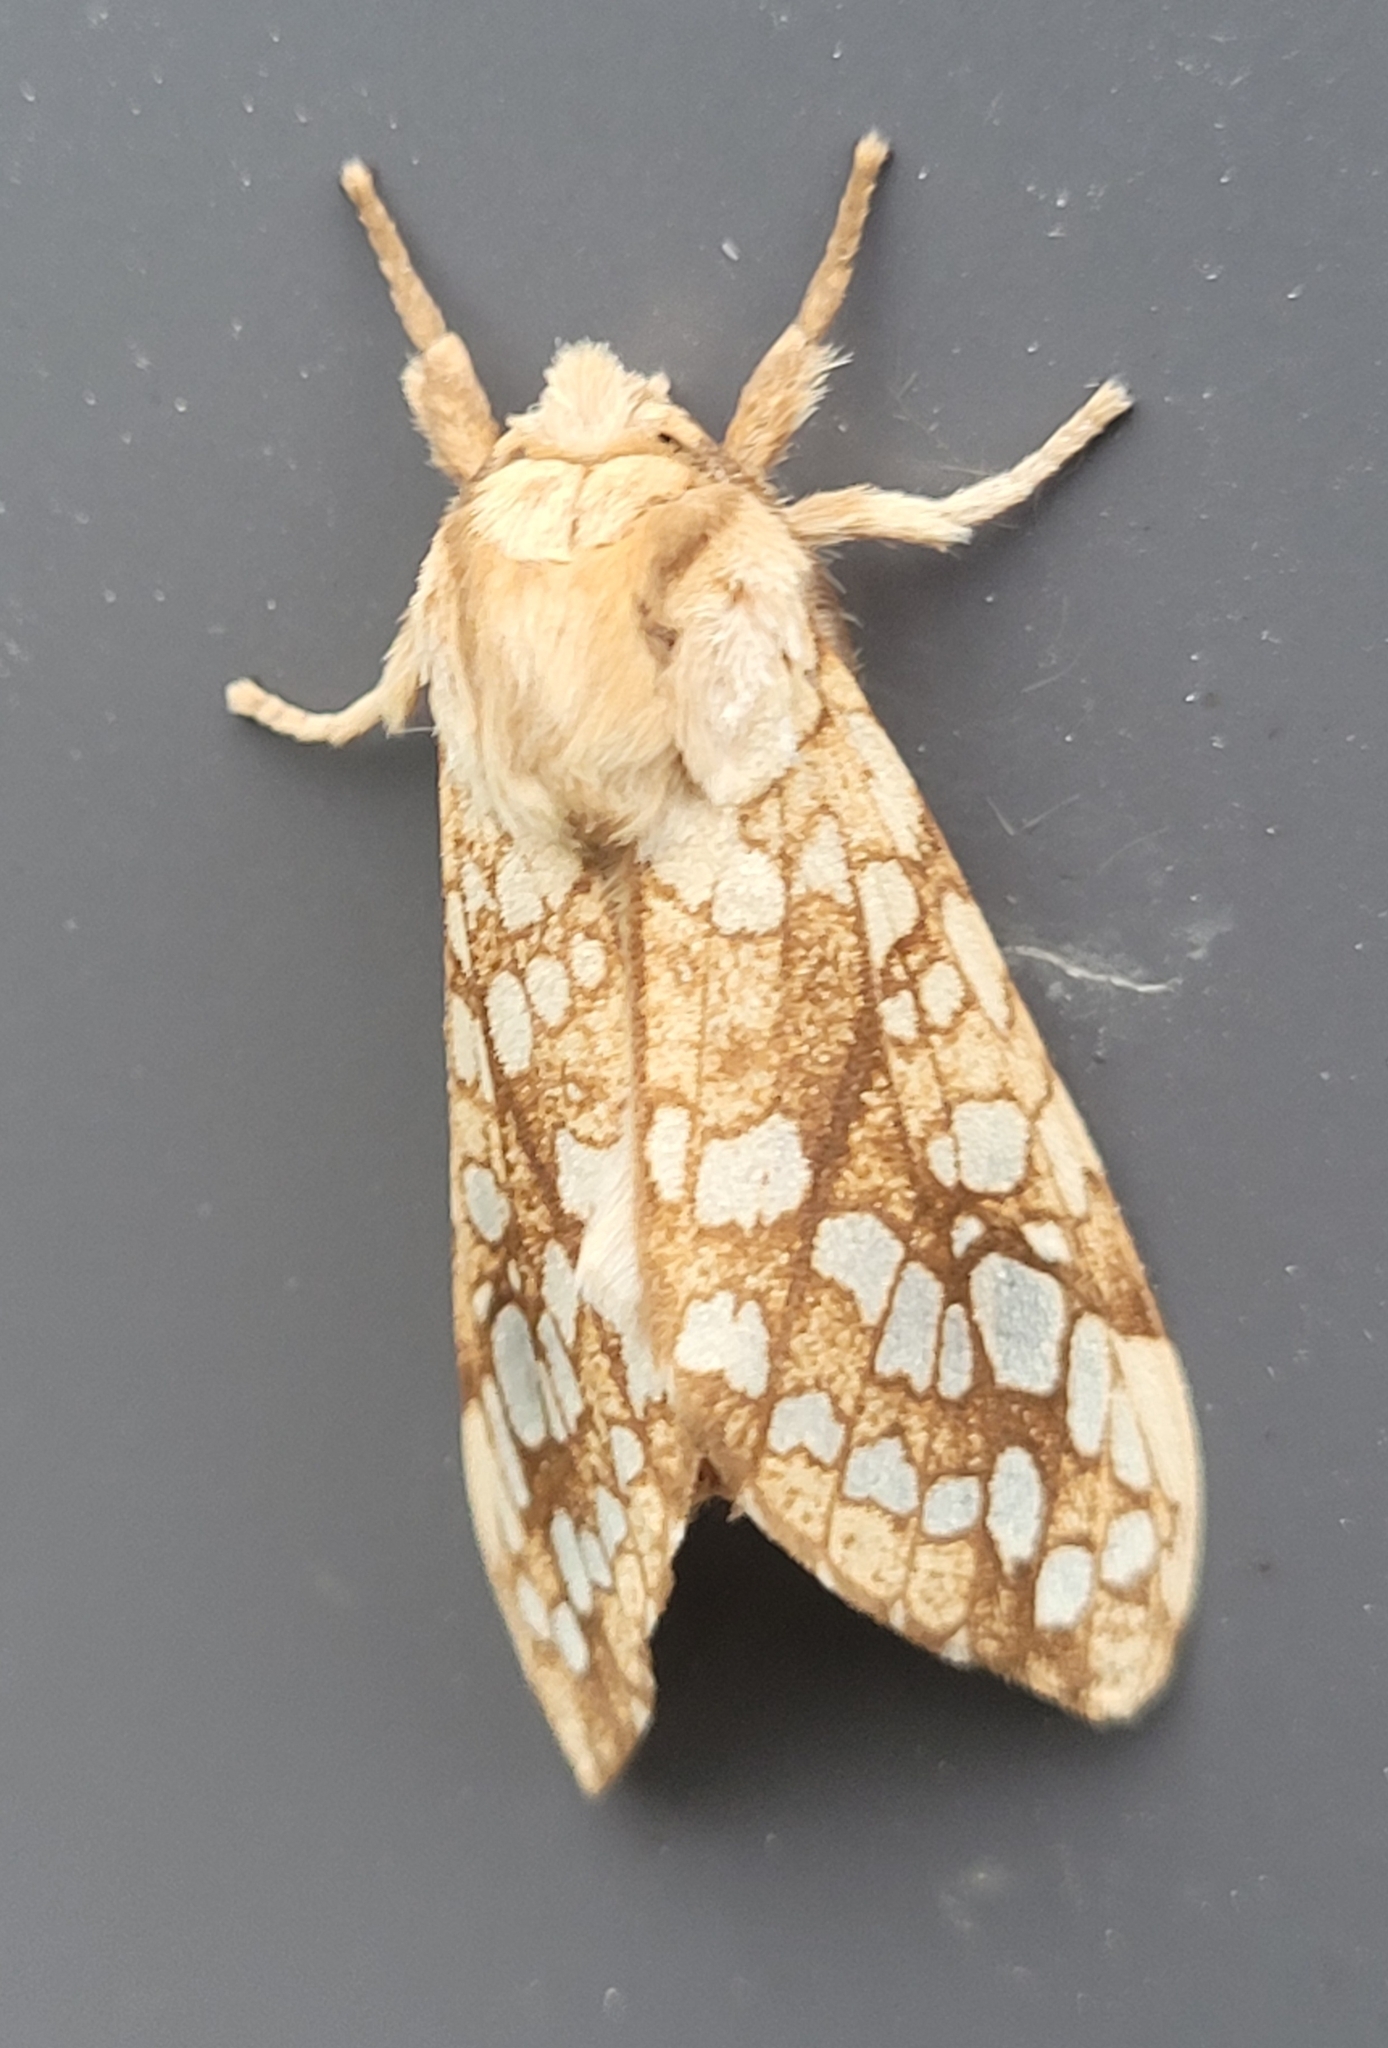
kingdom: Animalia
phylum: Arthropoda
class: Insecta
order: Lepidoptera
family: Erebidae
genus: Lophocampa
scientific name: Lophocampa caryae
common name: Hickory tussock moth
